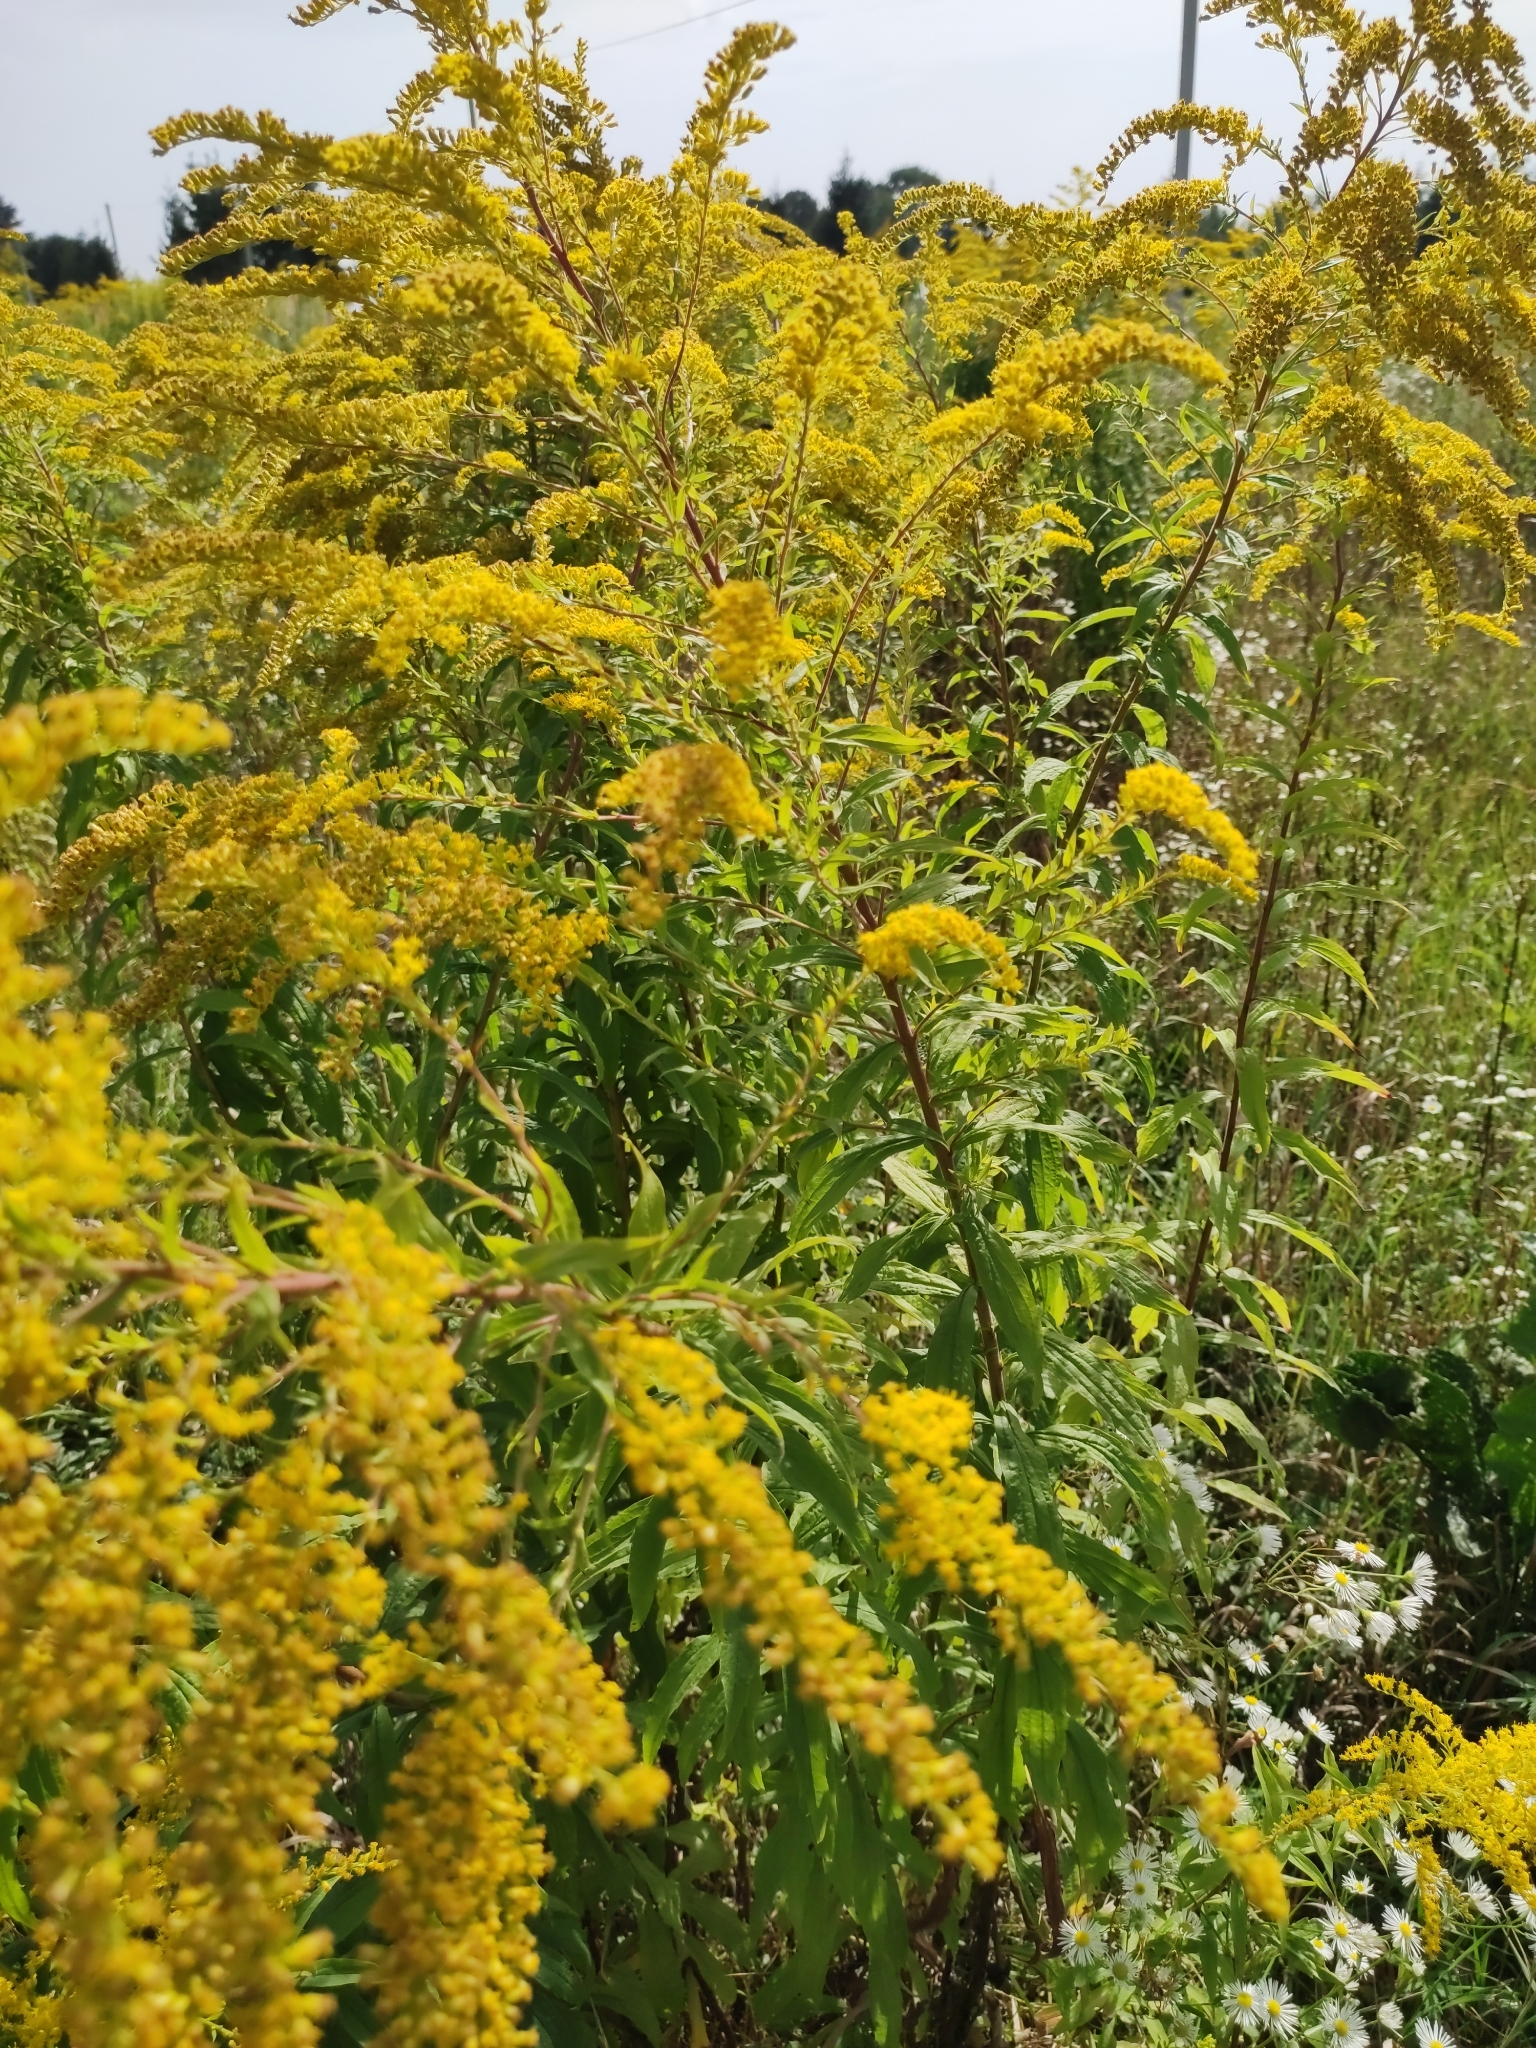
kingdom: Plantae
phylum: Tracheophyta
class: Magnoliopsida
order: Asterales
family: Asteraceae
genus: Solidago
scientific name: Solidago canadensis
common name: Canada goldenrod
